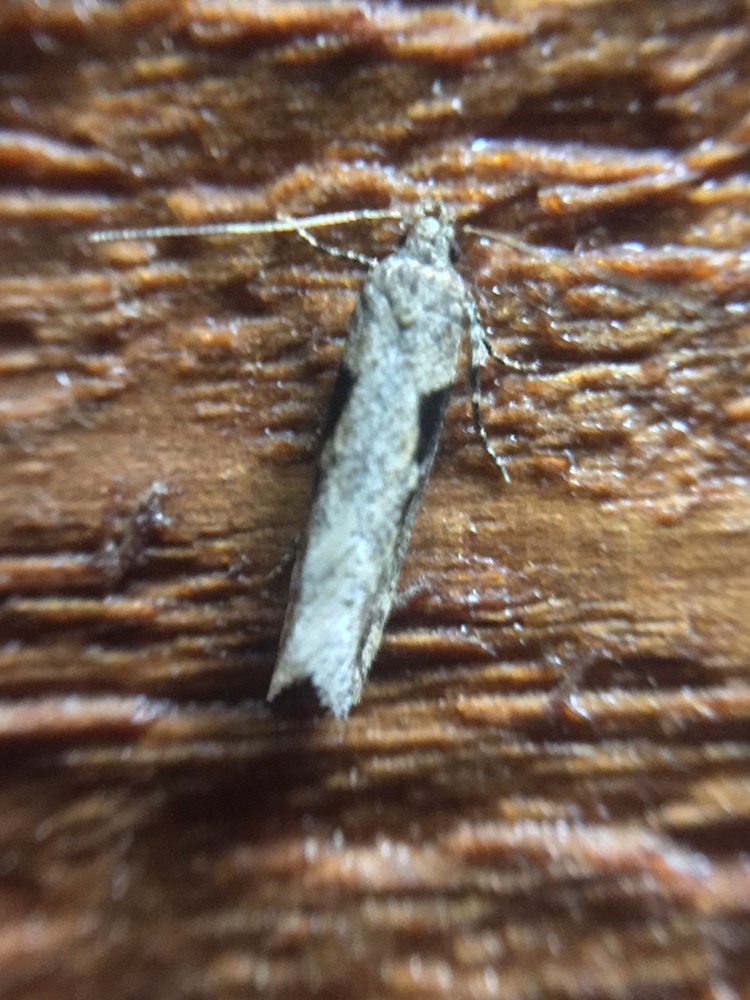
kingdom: Animalia
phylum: Arthropoda
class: Insecta
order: Lepidoptera
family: Gelechiidae
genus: Symmetrischema
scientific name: Symmetrischema tangolias
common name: Moth
